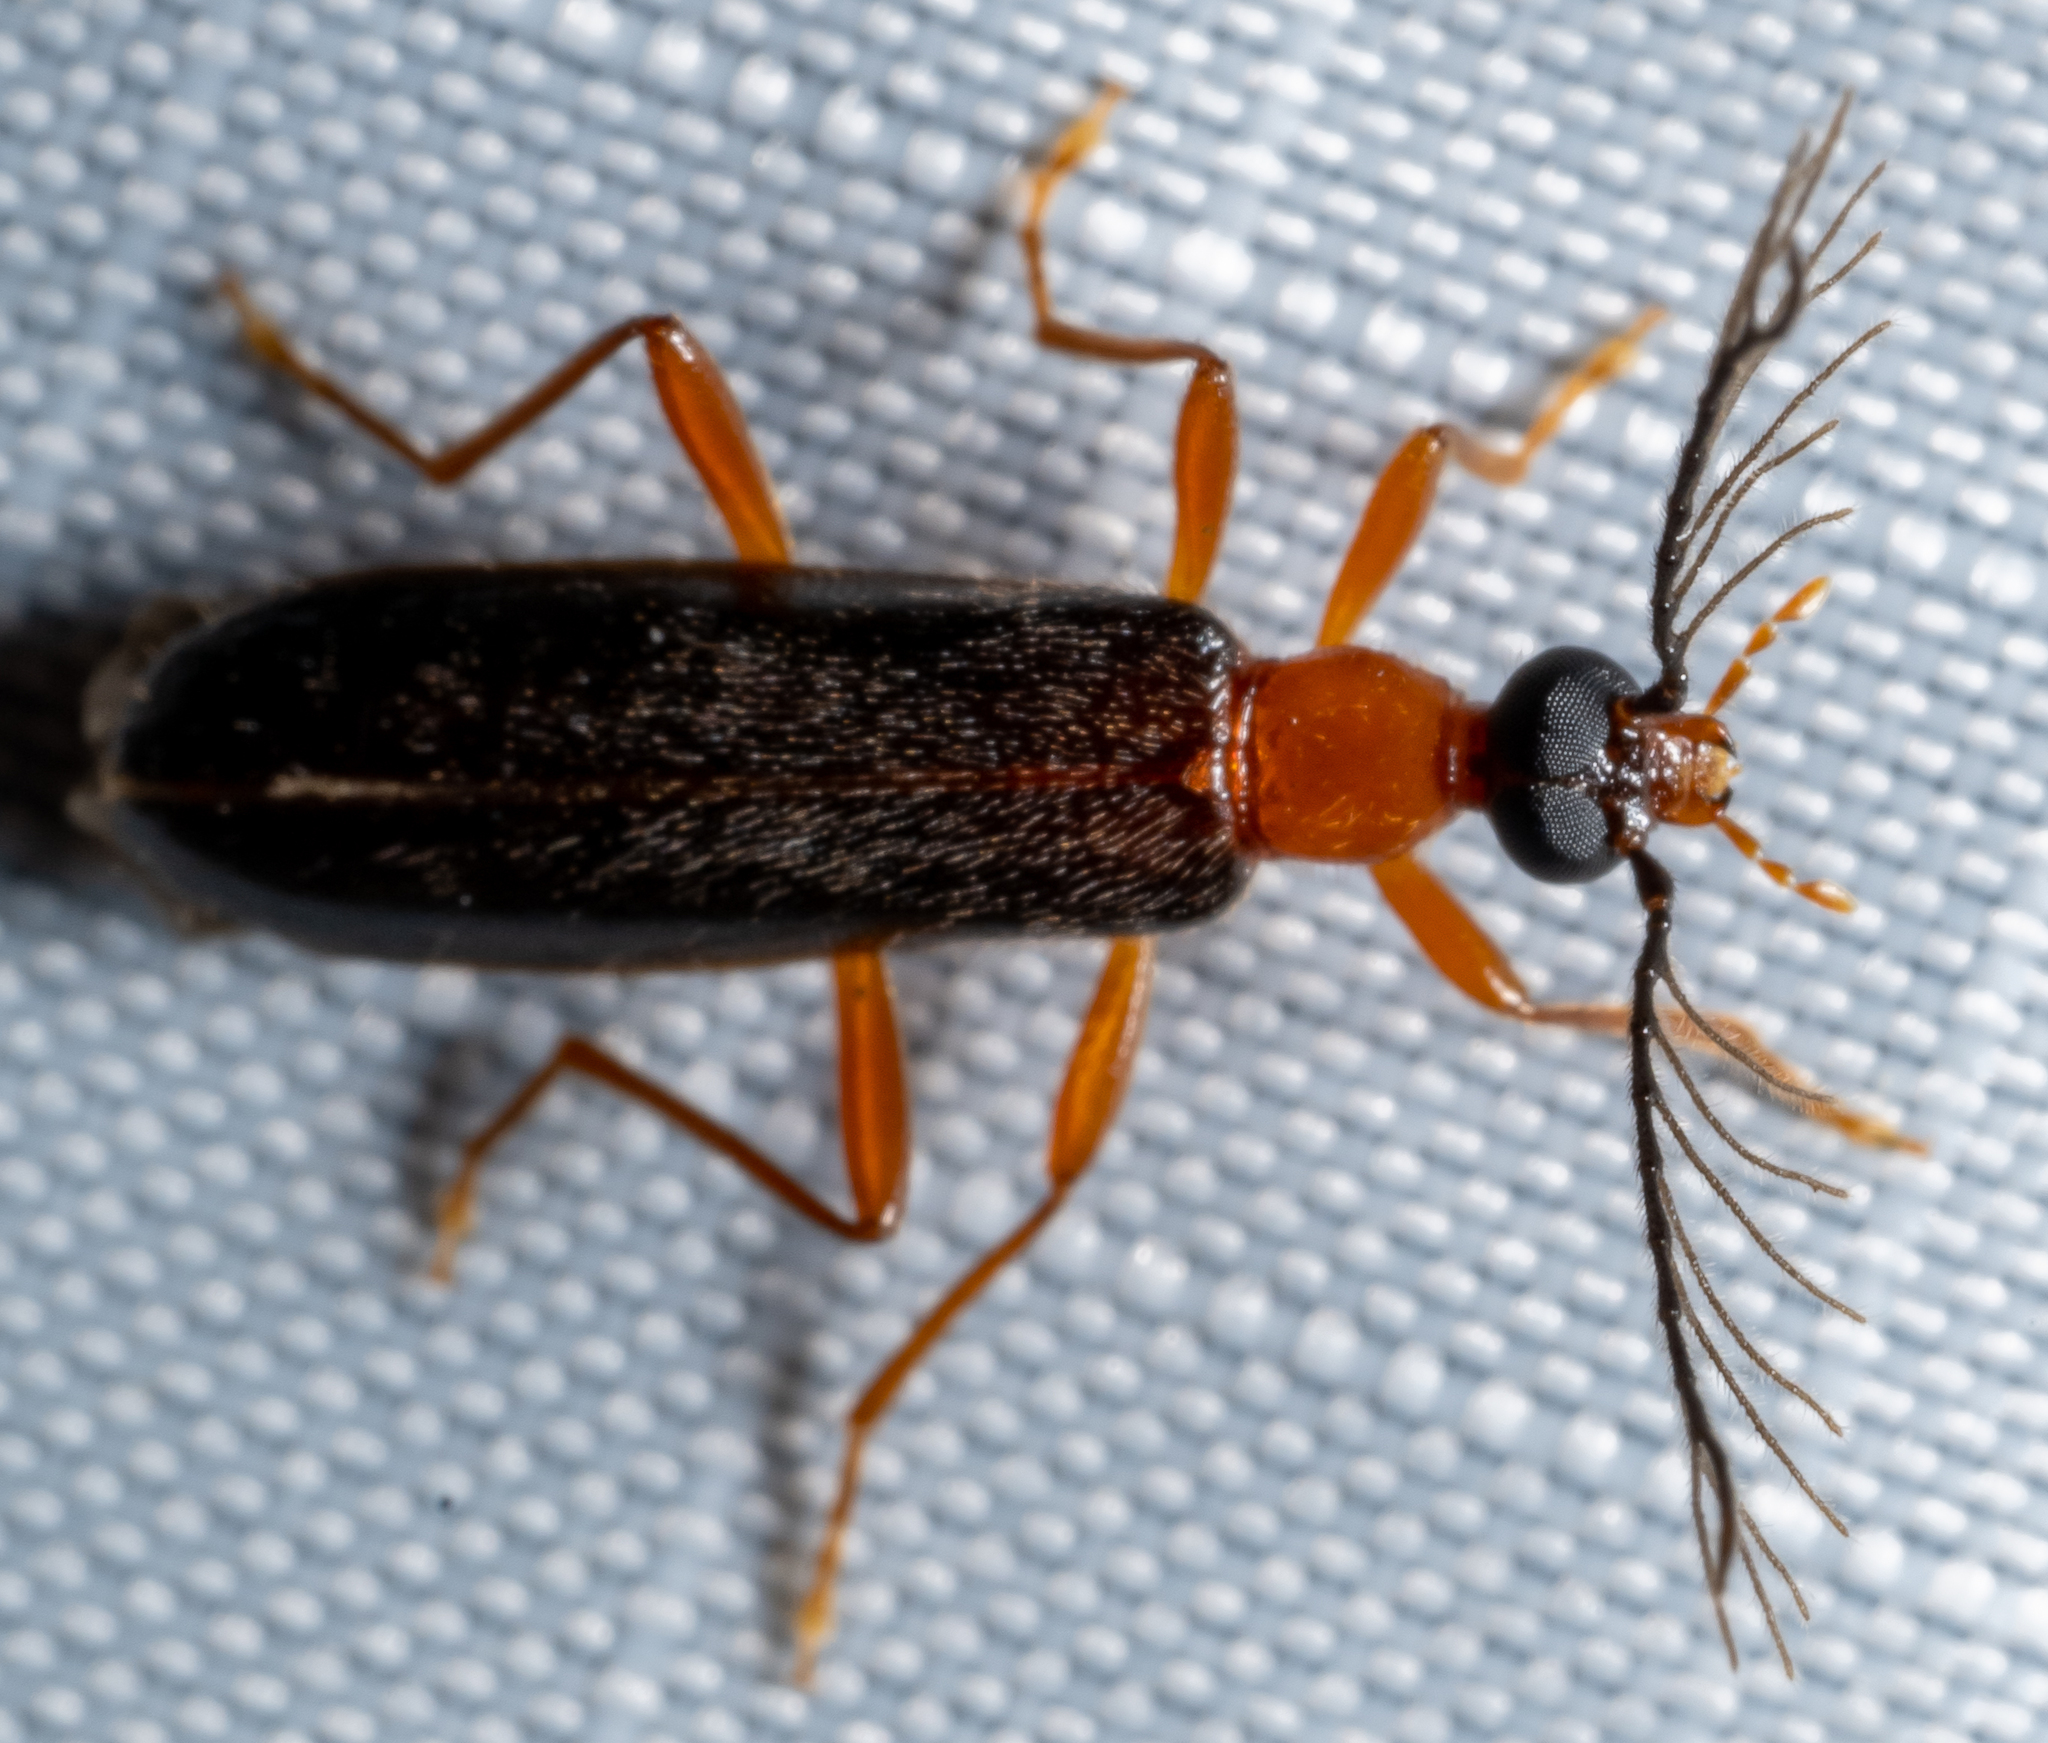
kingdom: Animalia
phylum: Arthropoda
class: Insecta
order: Coleoptera
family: Pyrochroidae
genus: Dendroides
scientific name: Dendroides canadensis
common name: Canada fire-colored beetle
